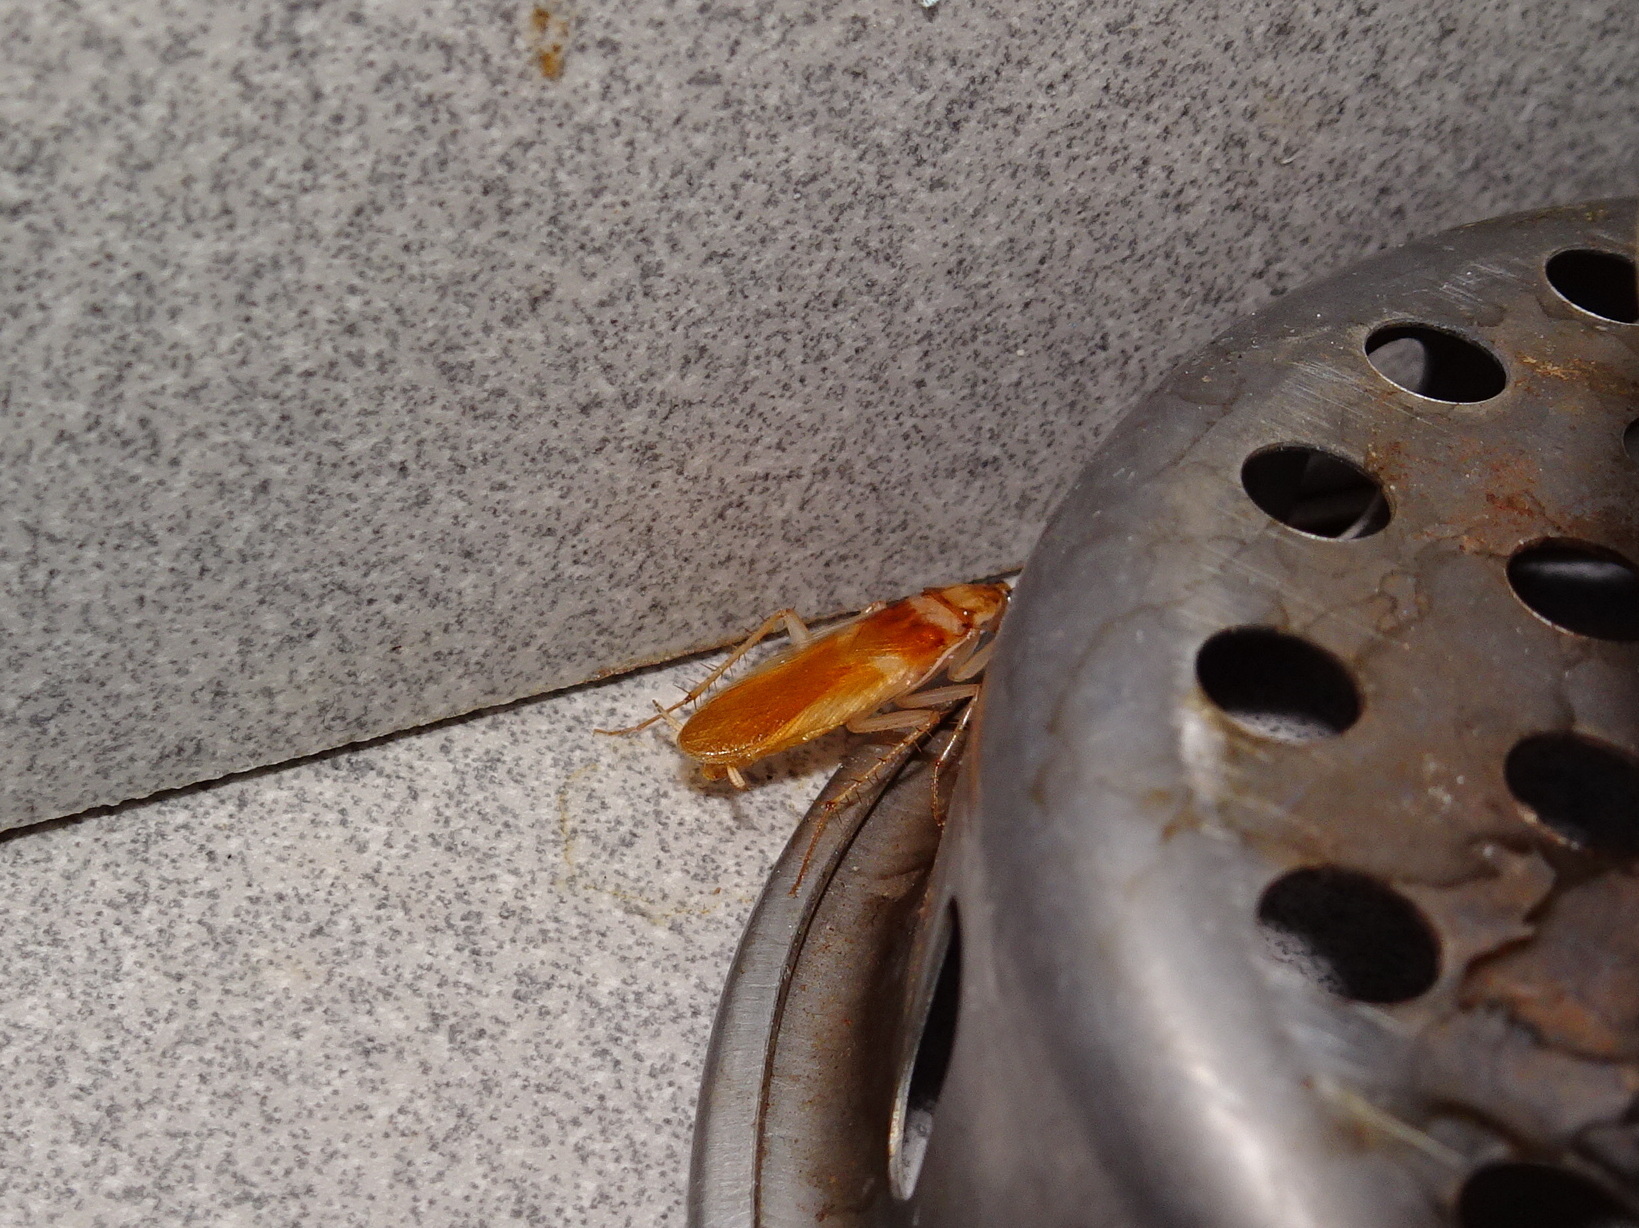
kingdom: Animalia
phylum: Arthropoda
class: Insecta
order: Blattodea
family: Ectobiidae
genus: Supella
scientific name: Supella longipalpa
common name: Brown-banded cockroach
